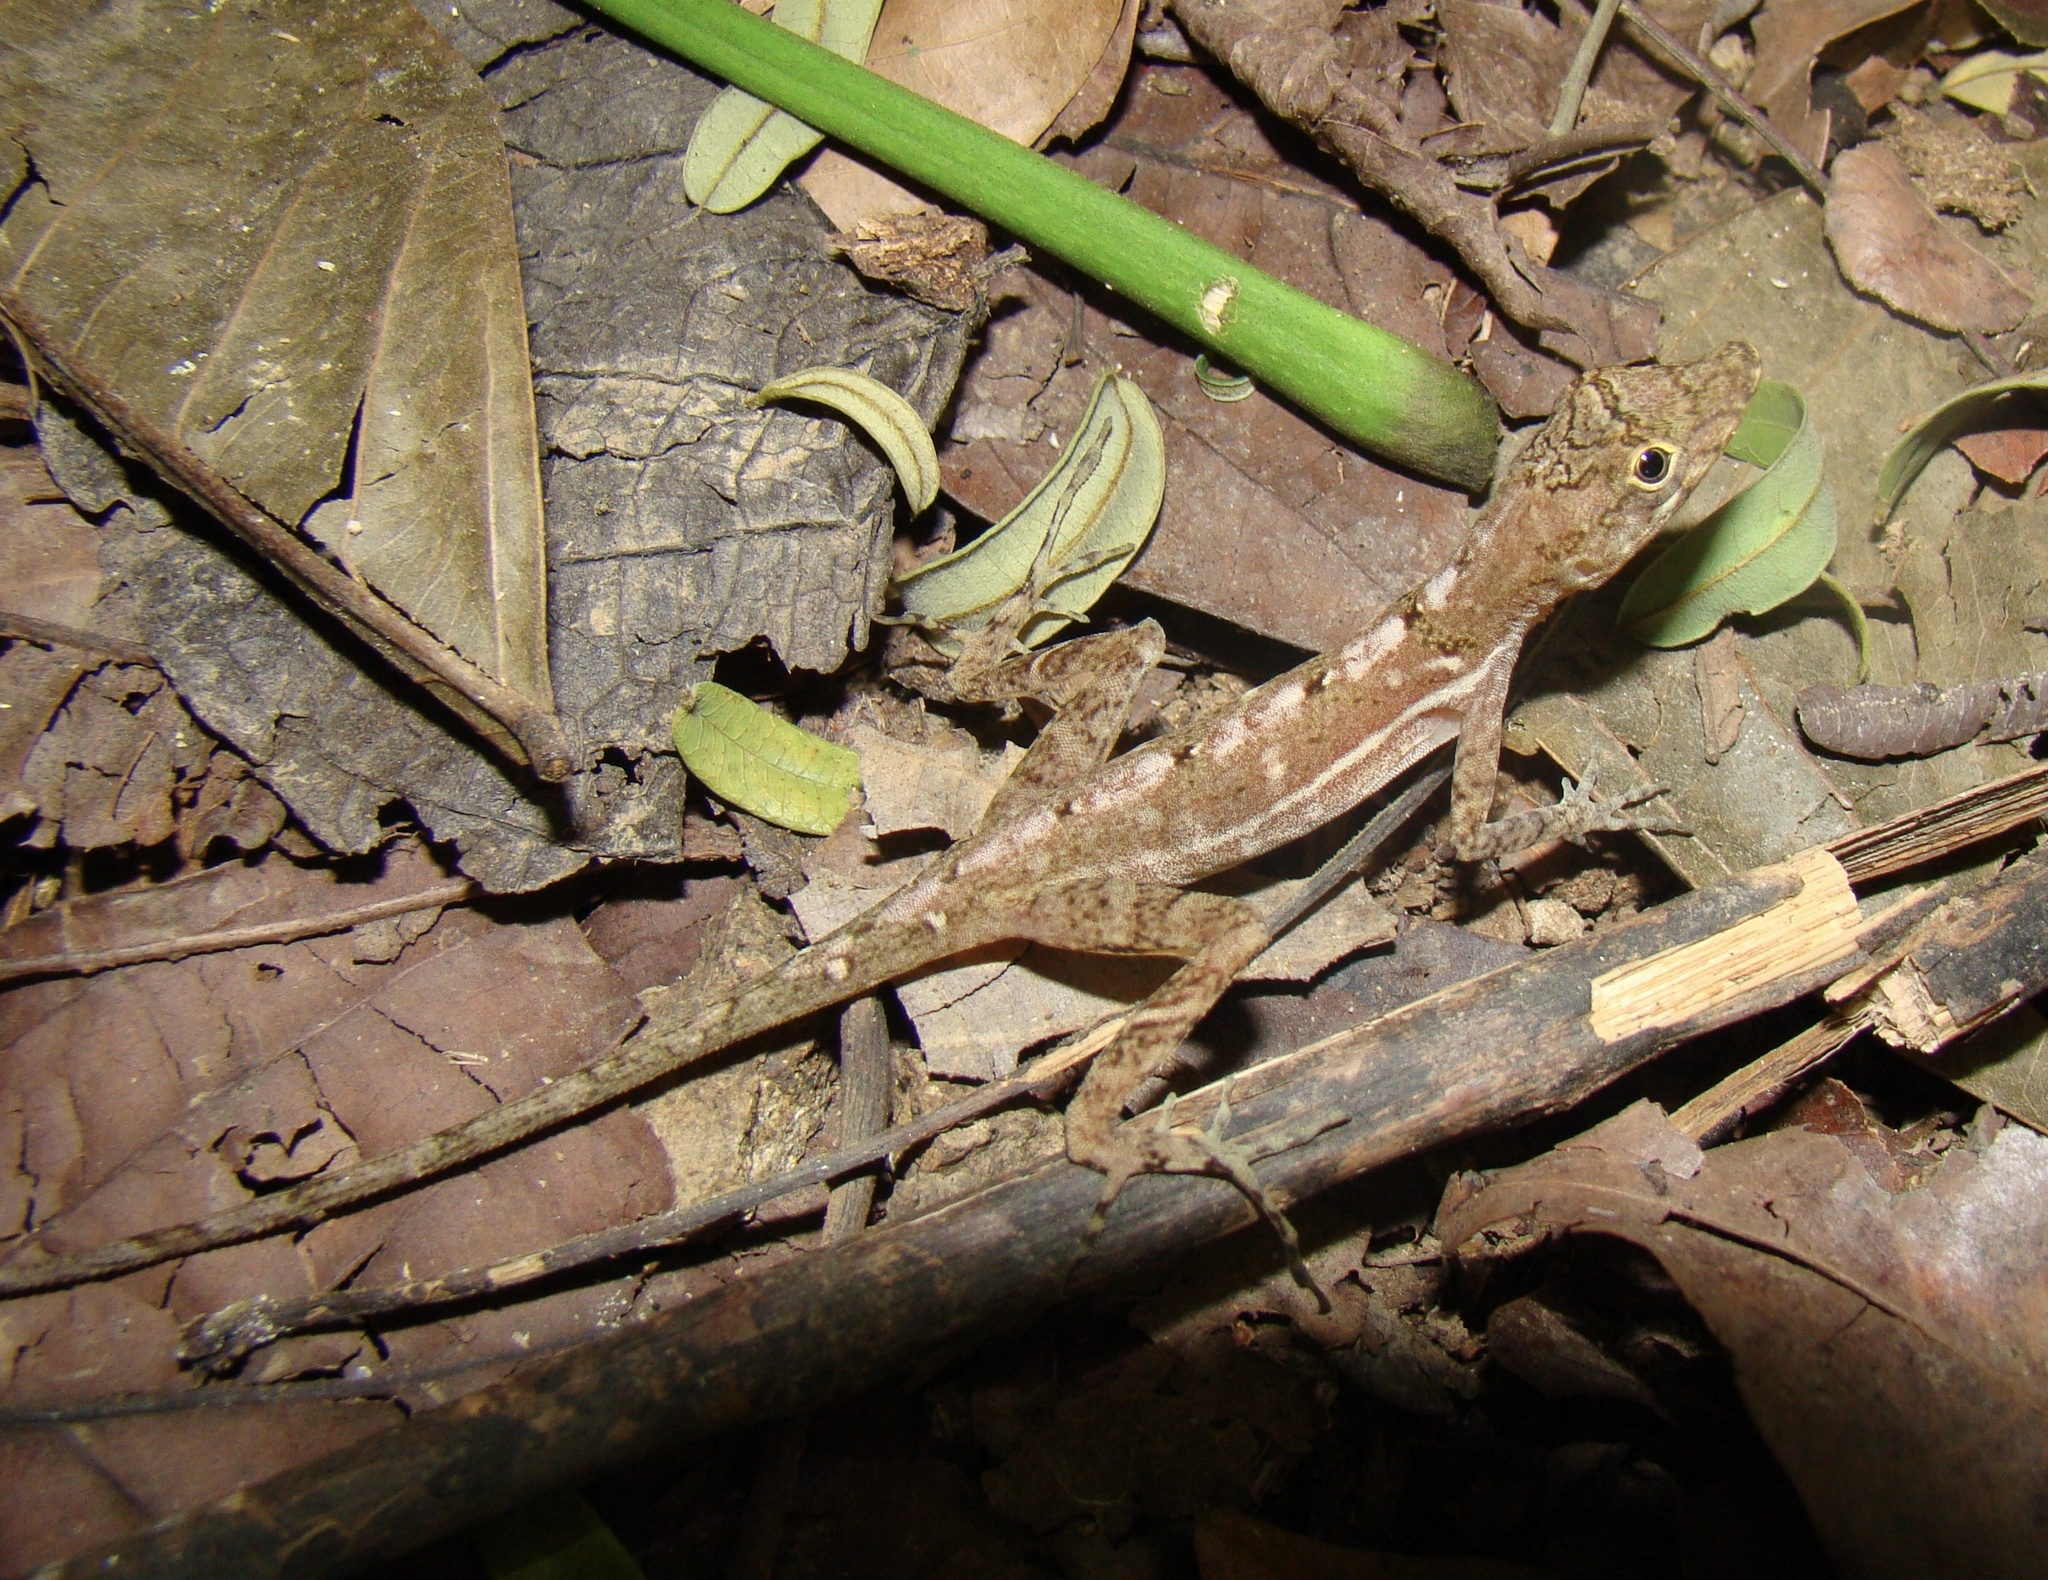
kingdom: Animalia
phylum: Chordata
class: Squamata
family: Dactyloidae
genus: Anolis
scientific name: Anolis polylepis
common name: Many-scaled anole
